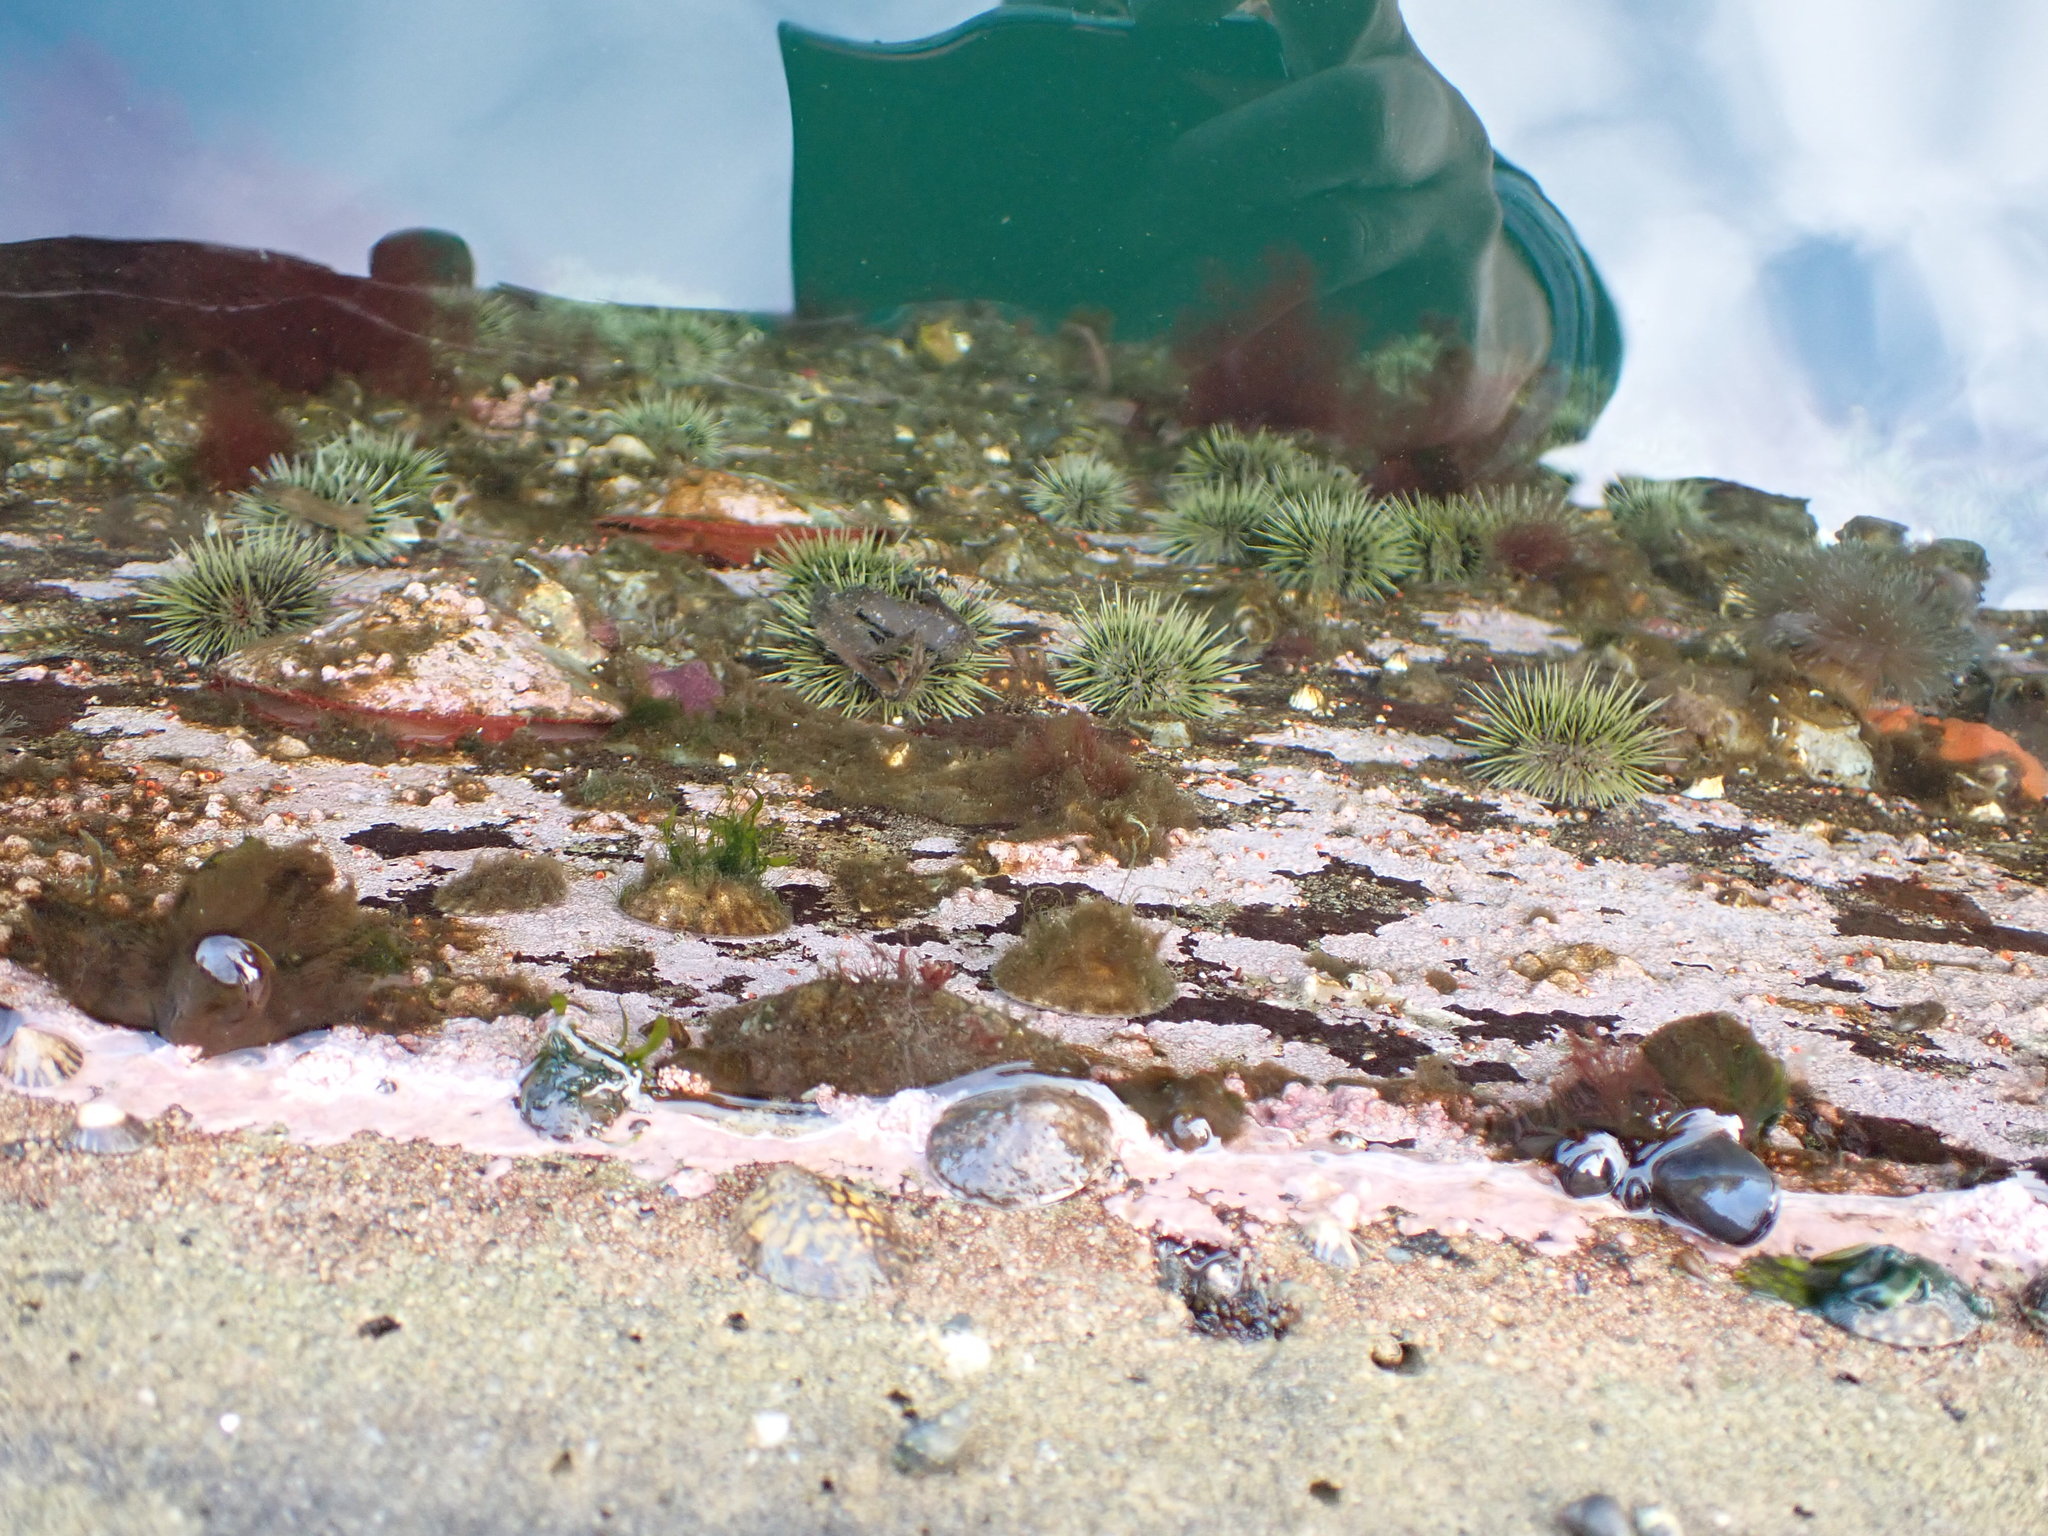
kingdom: Animalia
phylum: Echinodermata
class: Echinoidea
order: Camarodonta
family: Strongylocentrotidae
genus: Strongylocentrotus
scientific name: Strongylocentrotus droebachiensis
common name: Northern sea urchin
